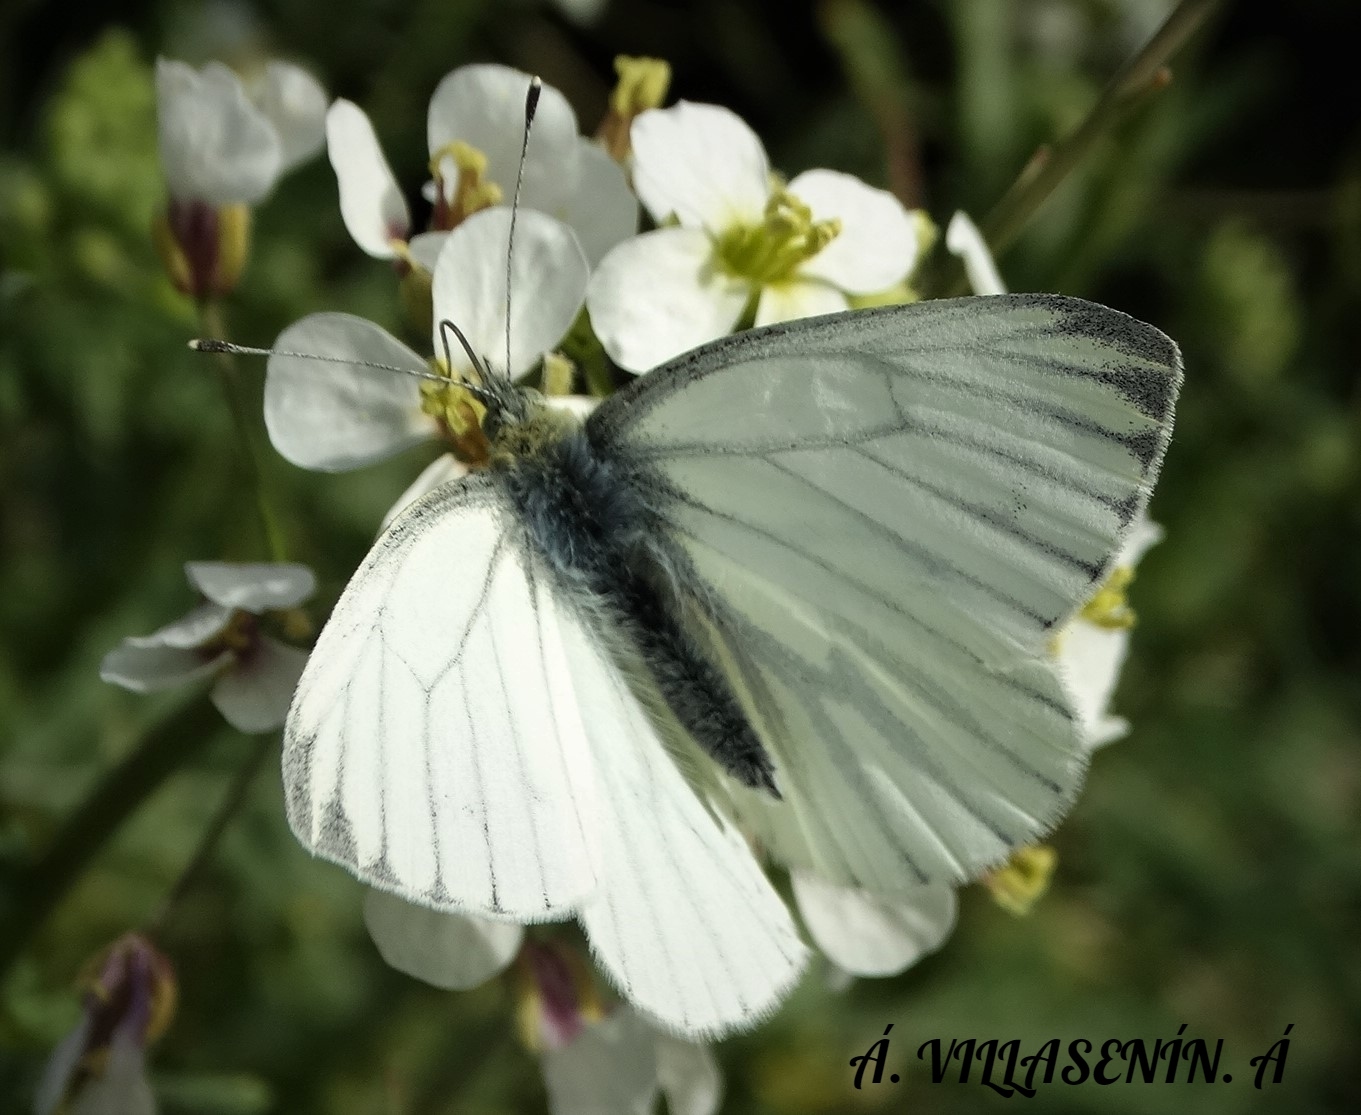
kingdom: Animalia
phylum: Arthropoda
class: Insecta
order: Lepidoptera
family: Pieridae
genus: Pieris
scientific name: Pieris napi
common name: Green-veined white
